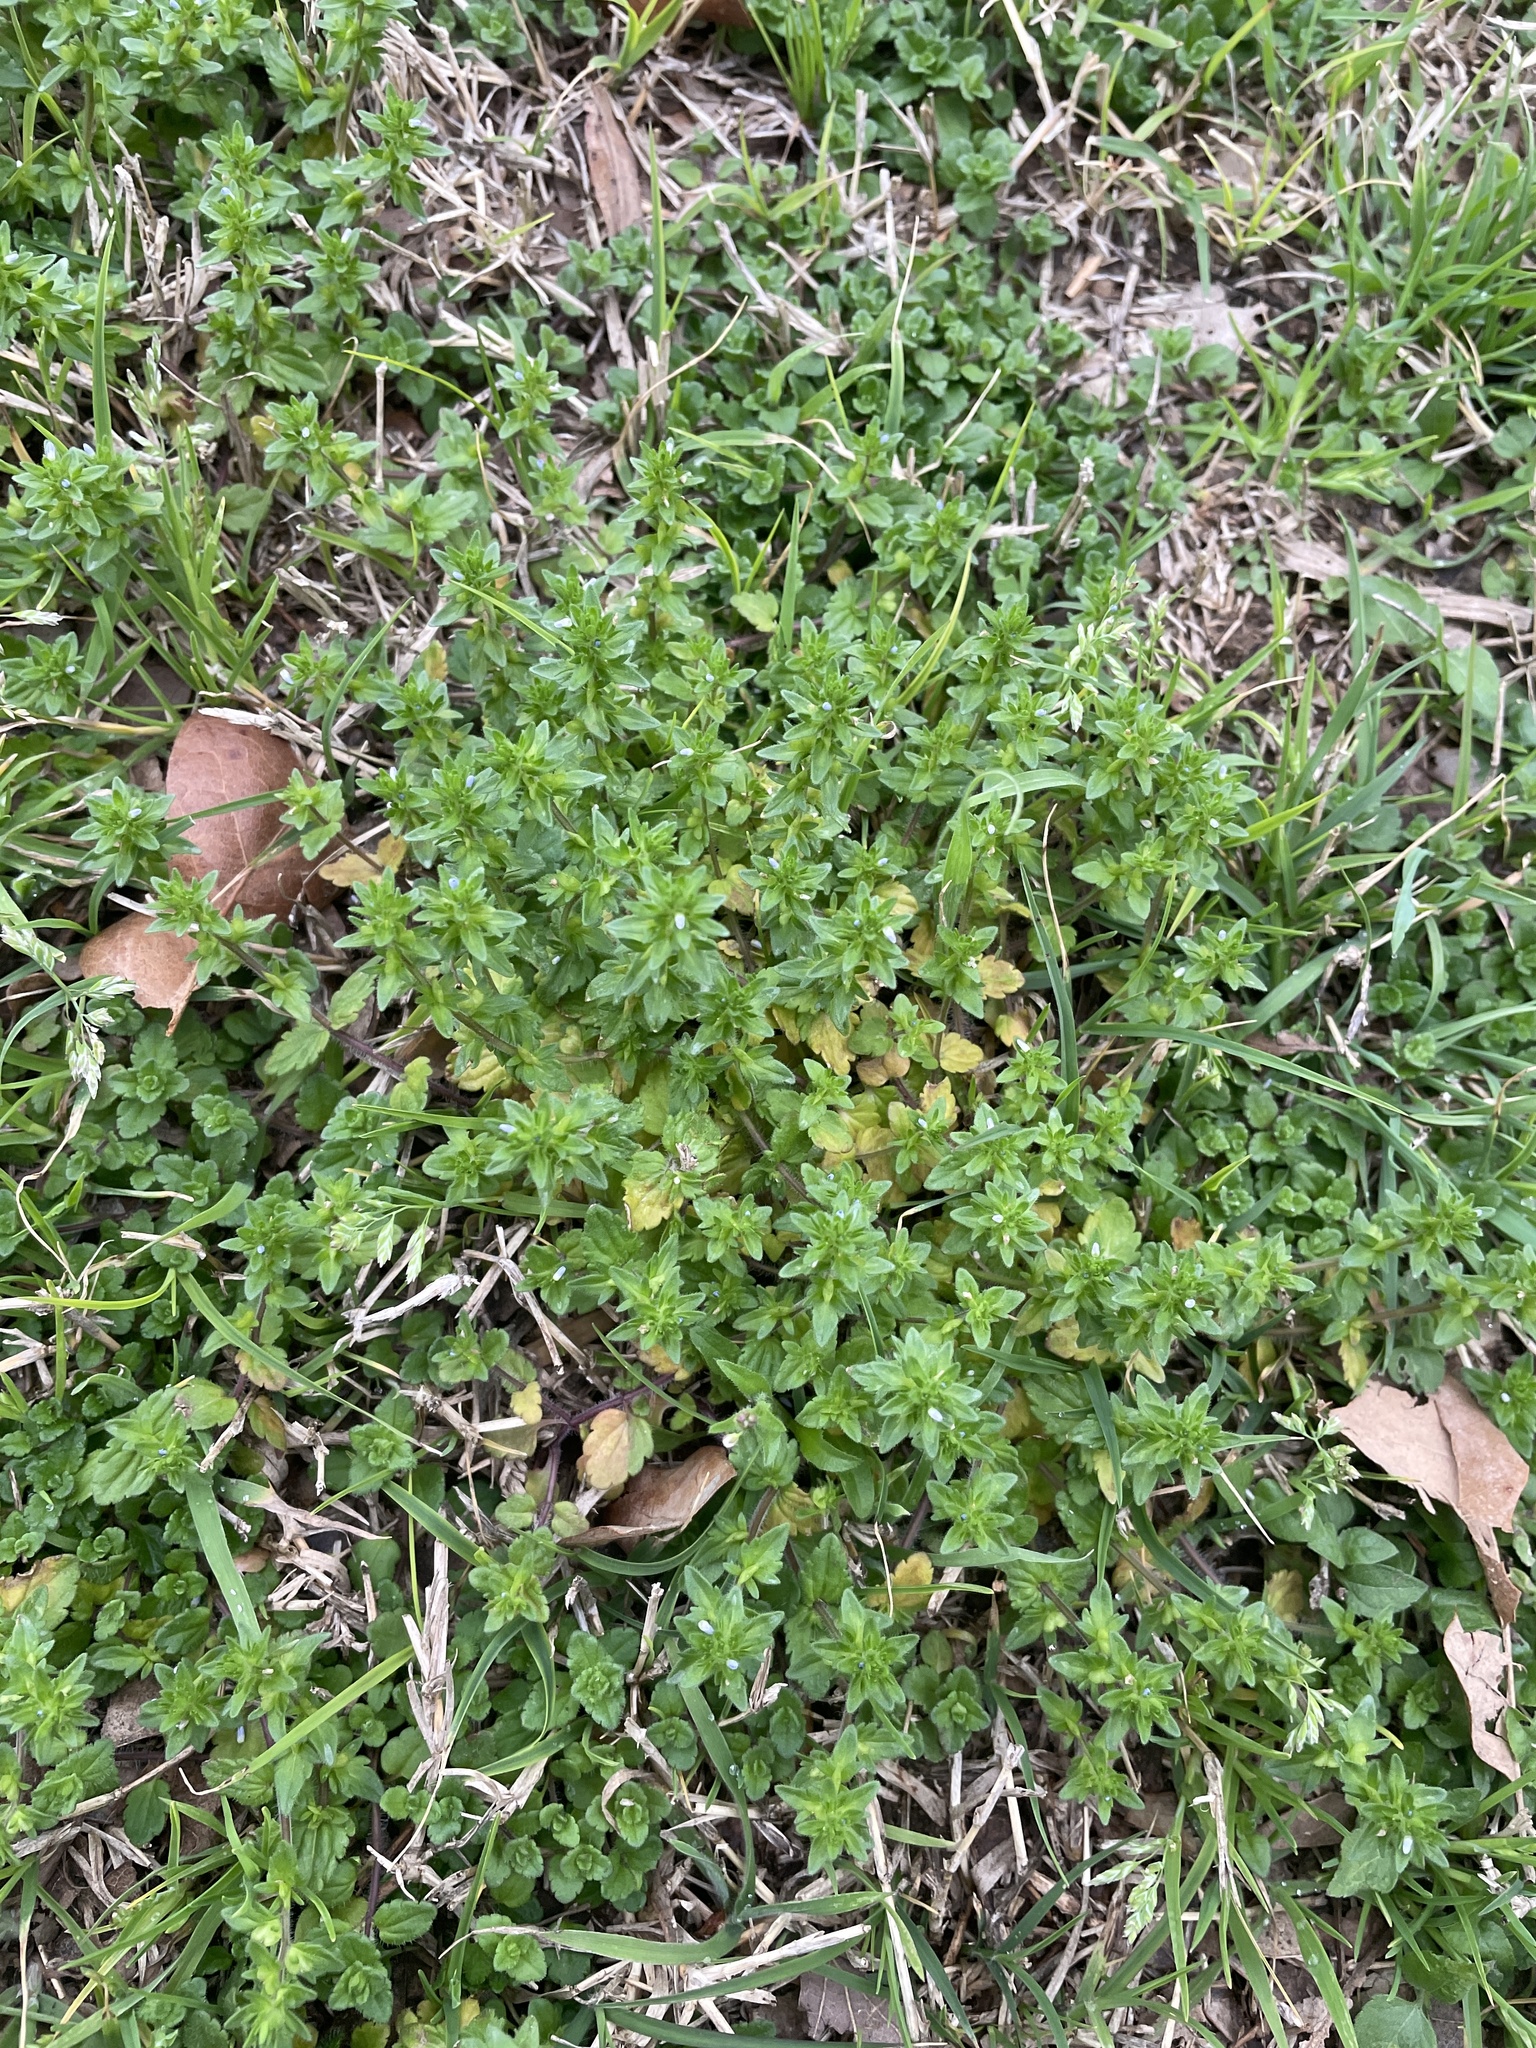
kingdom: Plantae
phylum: Tracheophyta
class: Magnoliopsida
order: Lamiales
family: Plantaginaceae
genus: Veronica
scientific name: Veronica arvensis
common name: Corn speedwell
